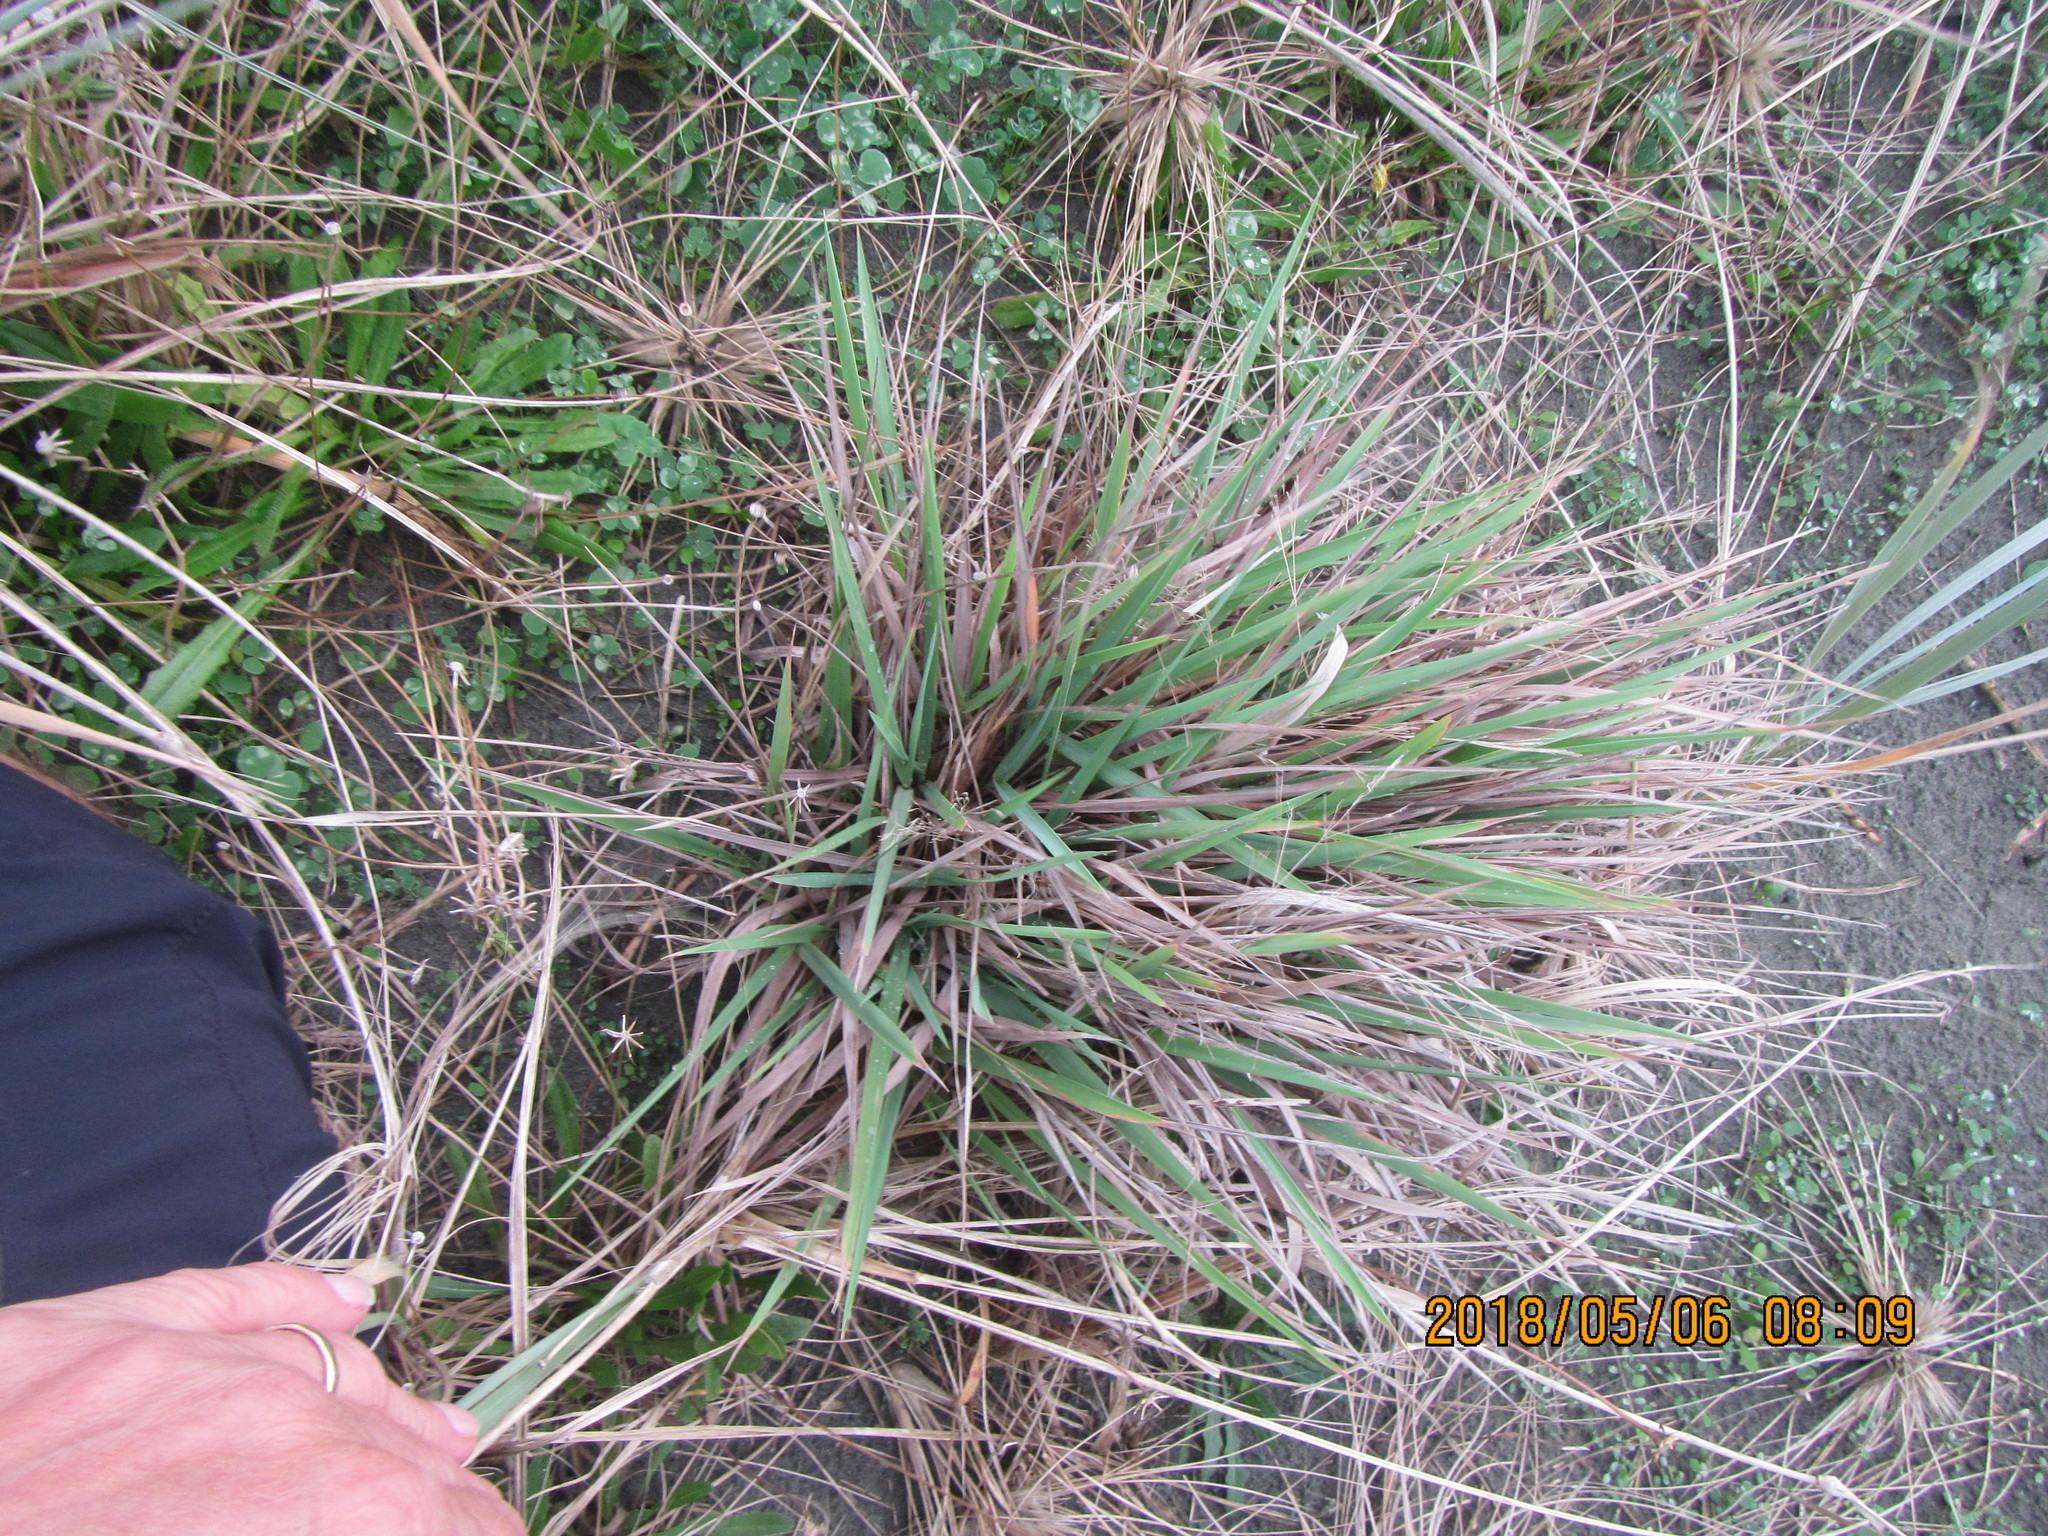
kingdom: Plantae
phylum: Tracheophyta
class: Liliopsida
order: Poales
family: Poaceae
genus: Lachnagrostis
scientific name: Lachnagrostis billardierei
